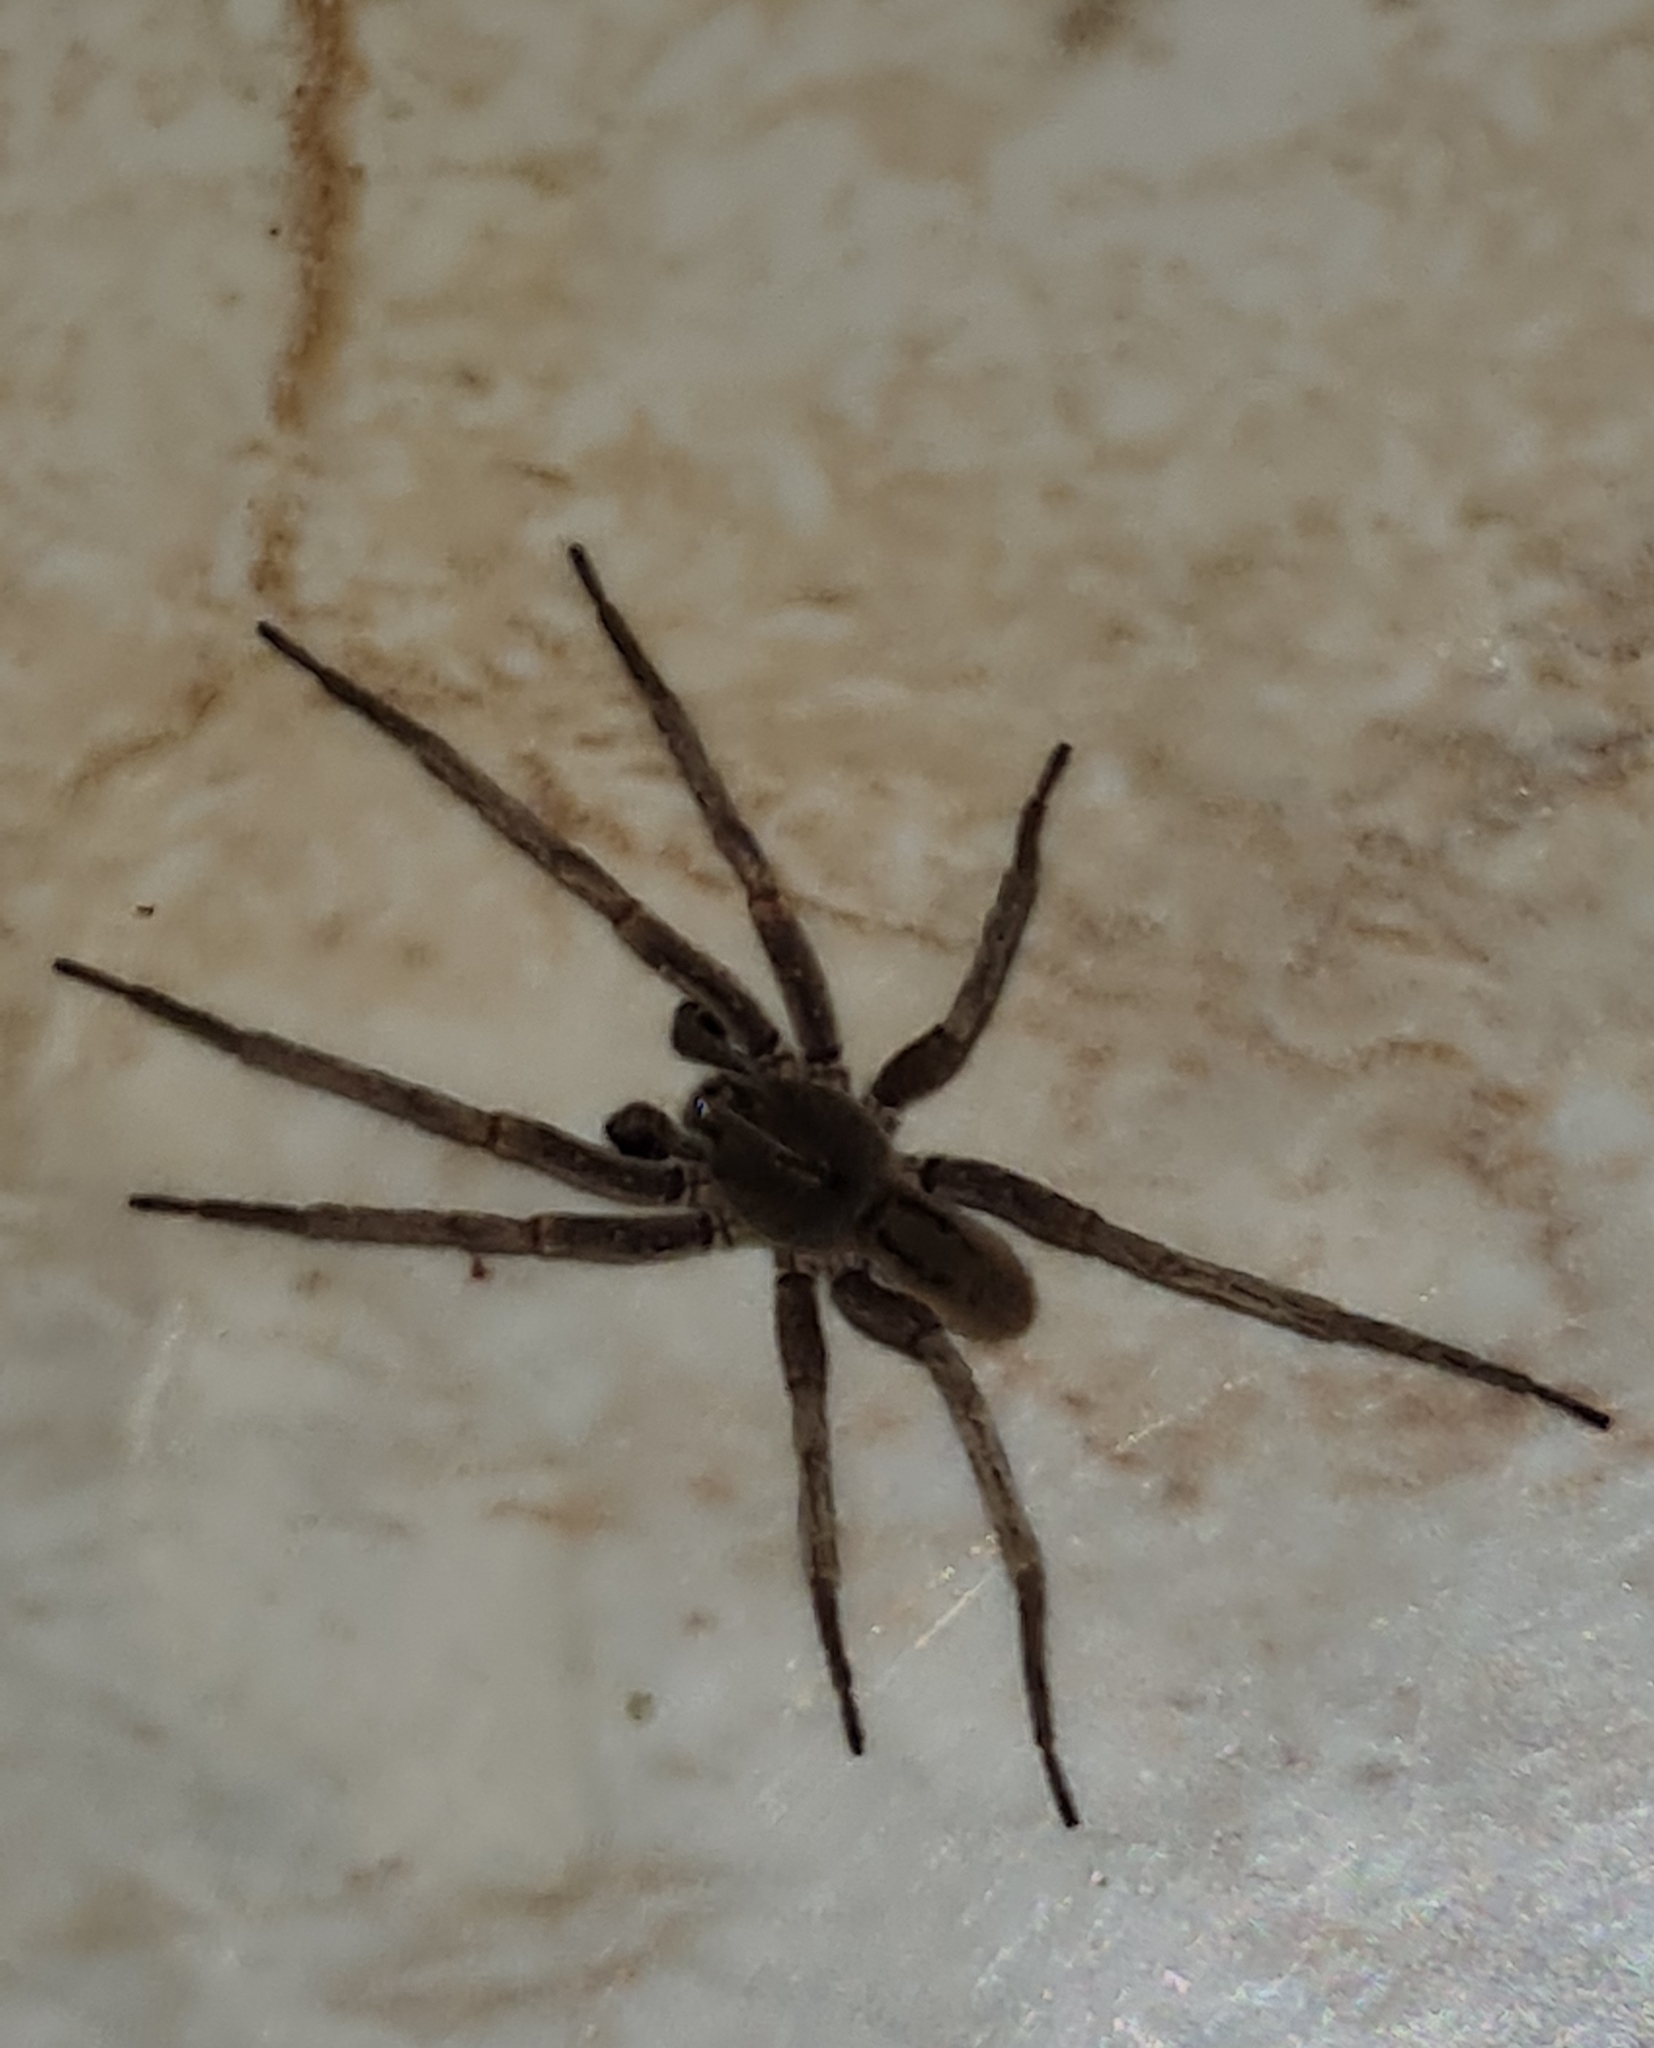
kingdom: Animalia
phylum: Arthropoda
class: Arachnida
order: Araneae
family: Ctenidae
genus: Parabatinga
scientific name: Parabatinga brevipes
